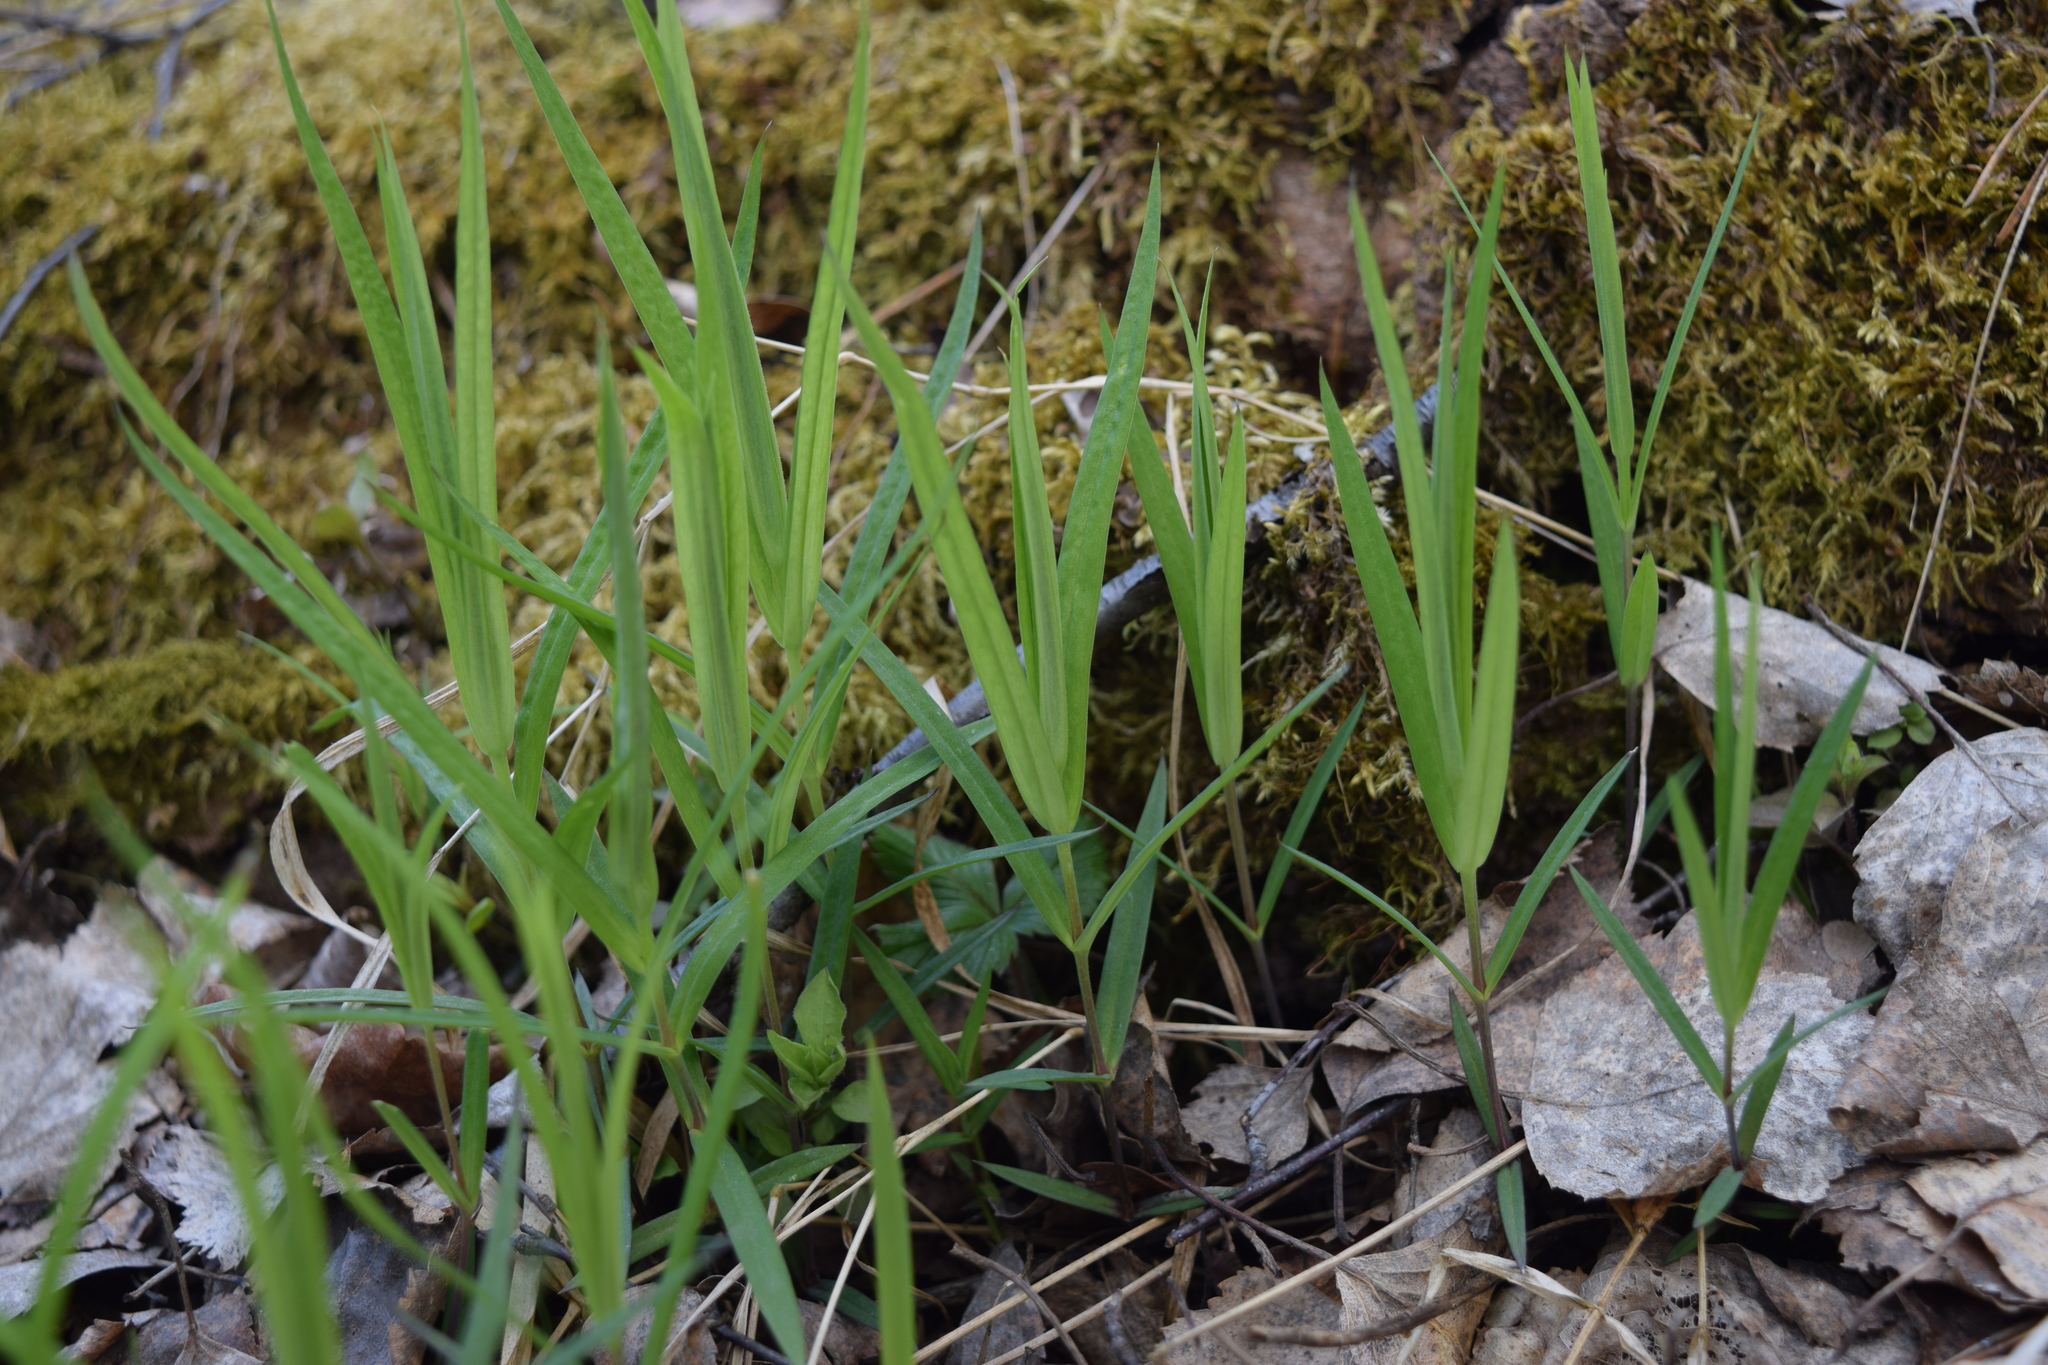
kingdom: Plantae
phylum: Tracheophyta
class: Magnoliopsida
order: Caryophyllales
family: Caryophyllaceae
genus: Rabelera
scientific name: Rabelera holostea
